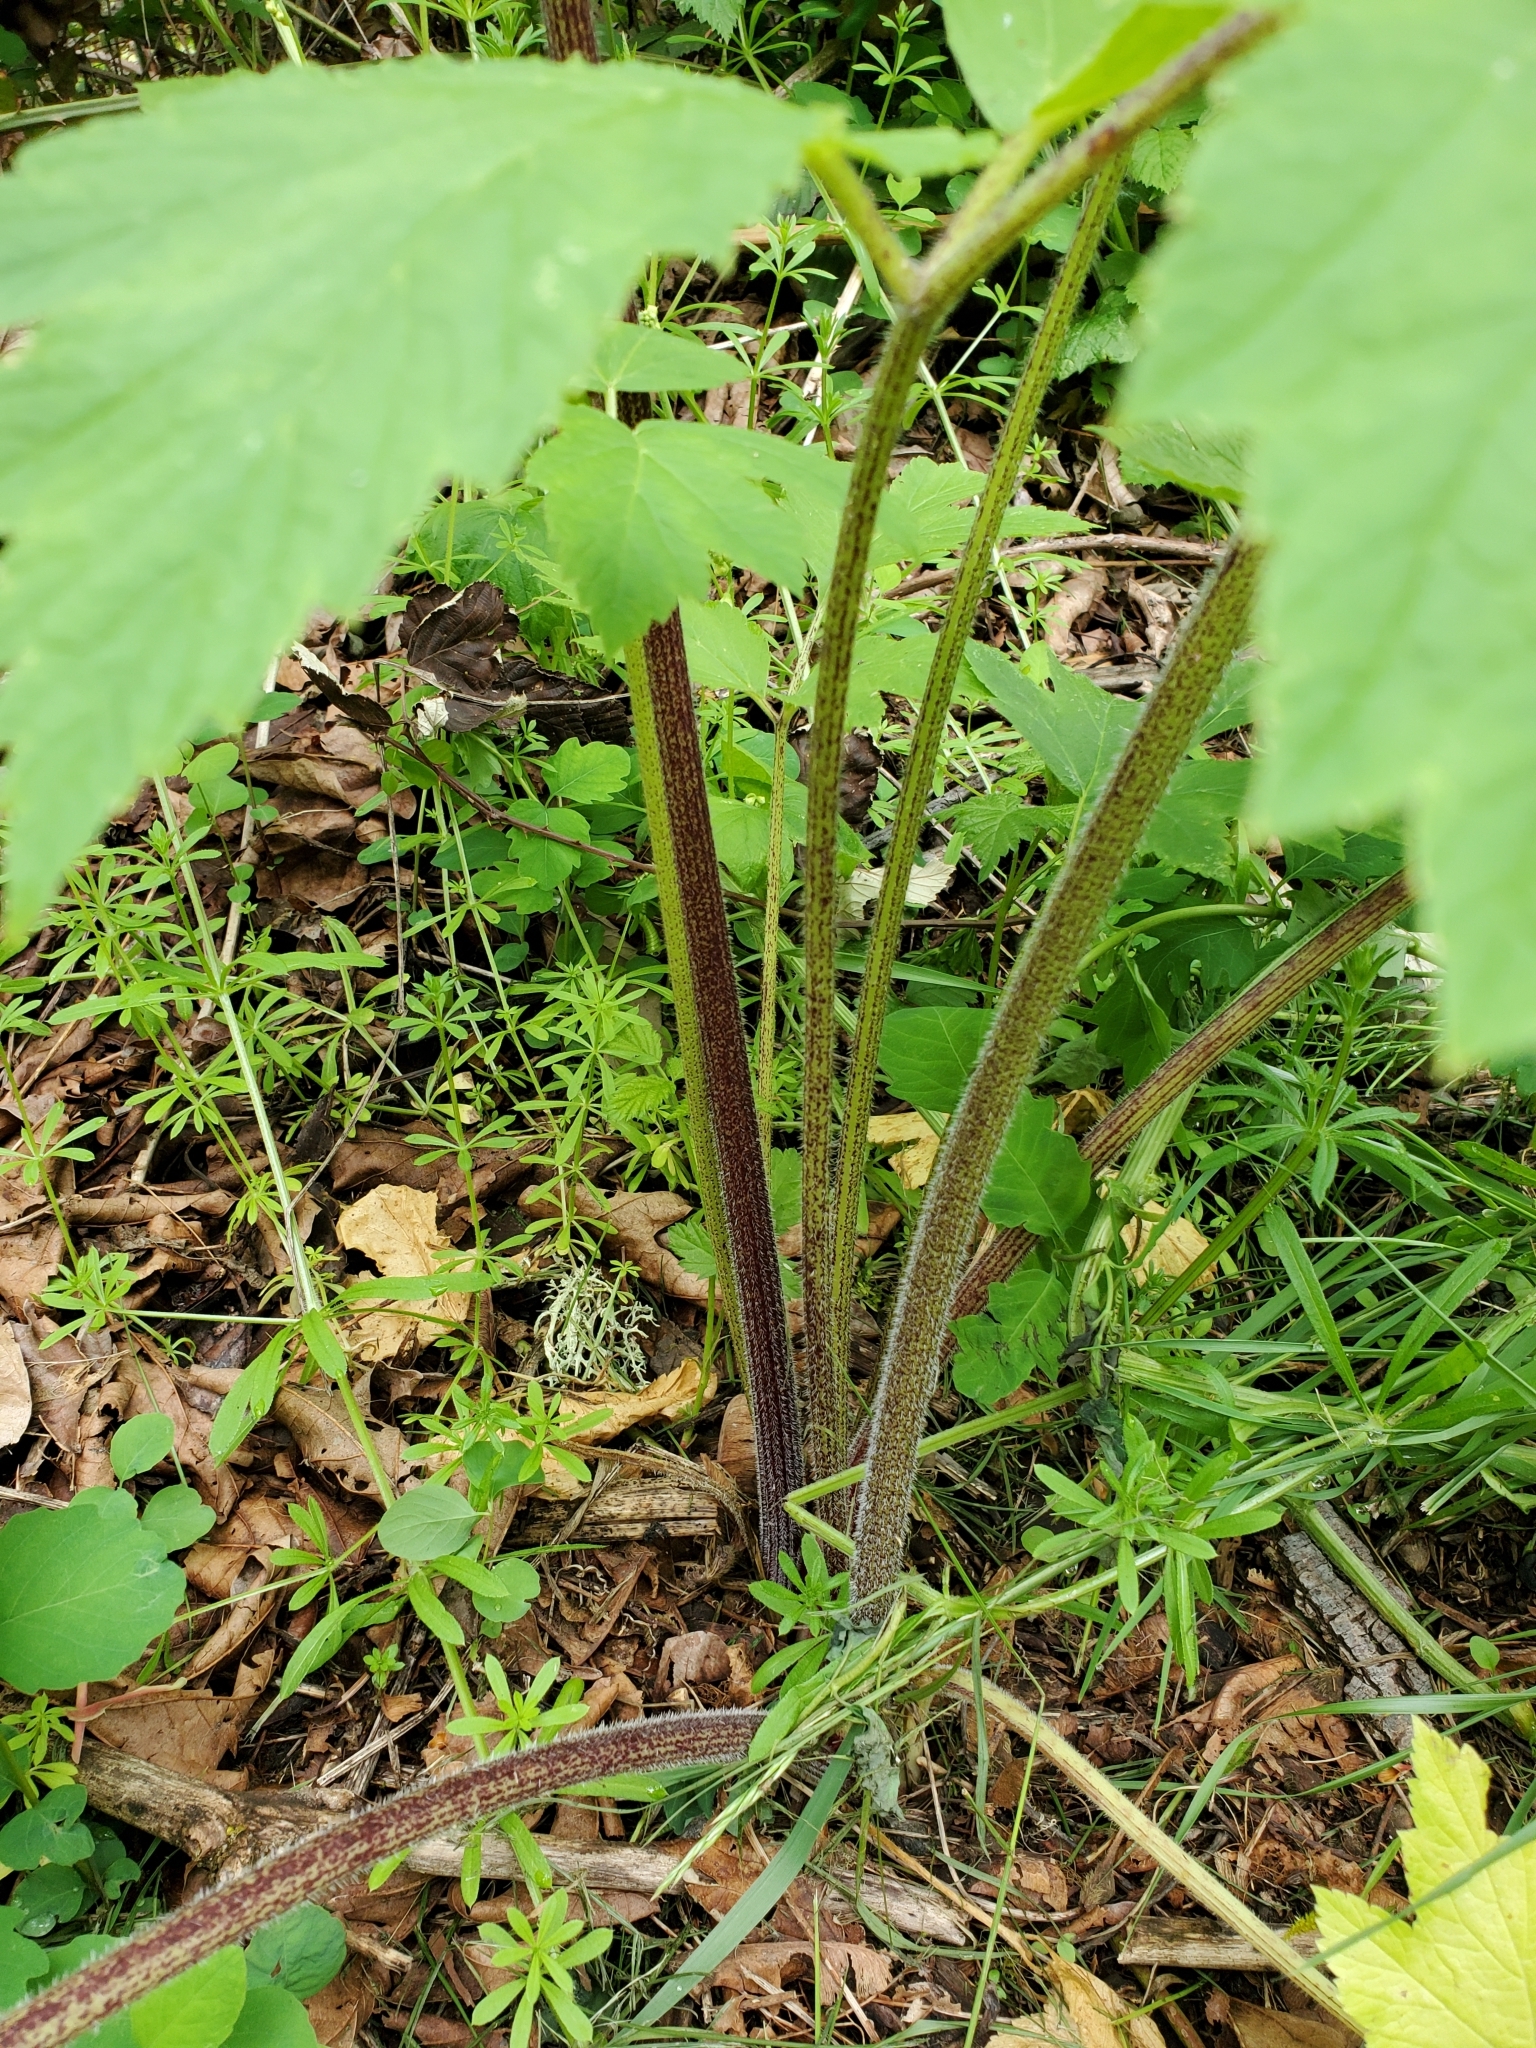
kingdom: Plantae
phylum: Tracheophyta
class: Magnoliopsida
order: Apiales
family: Apiaceae
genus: Heracleum
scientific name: Heracleum maximum
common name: American cow parsnip
